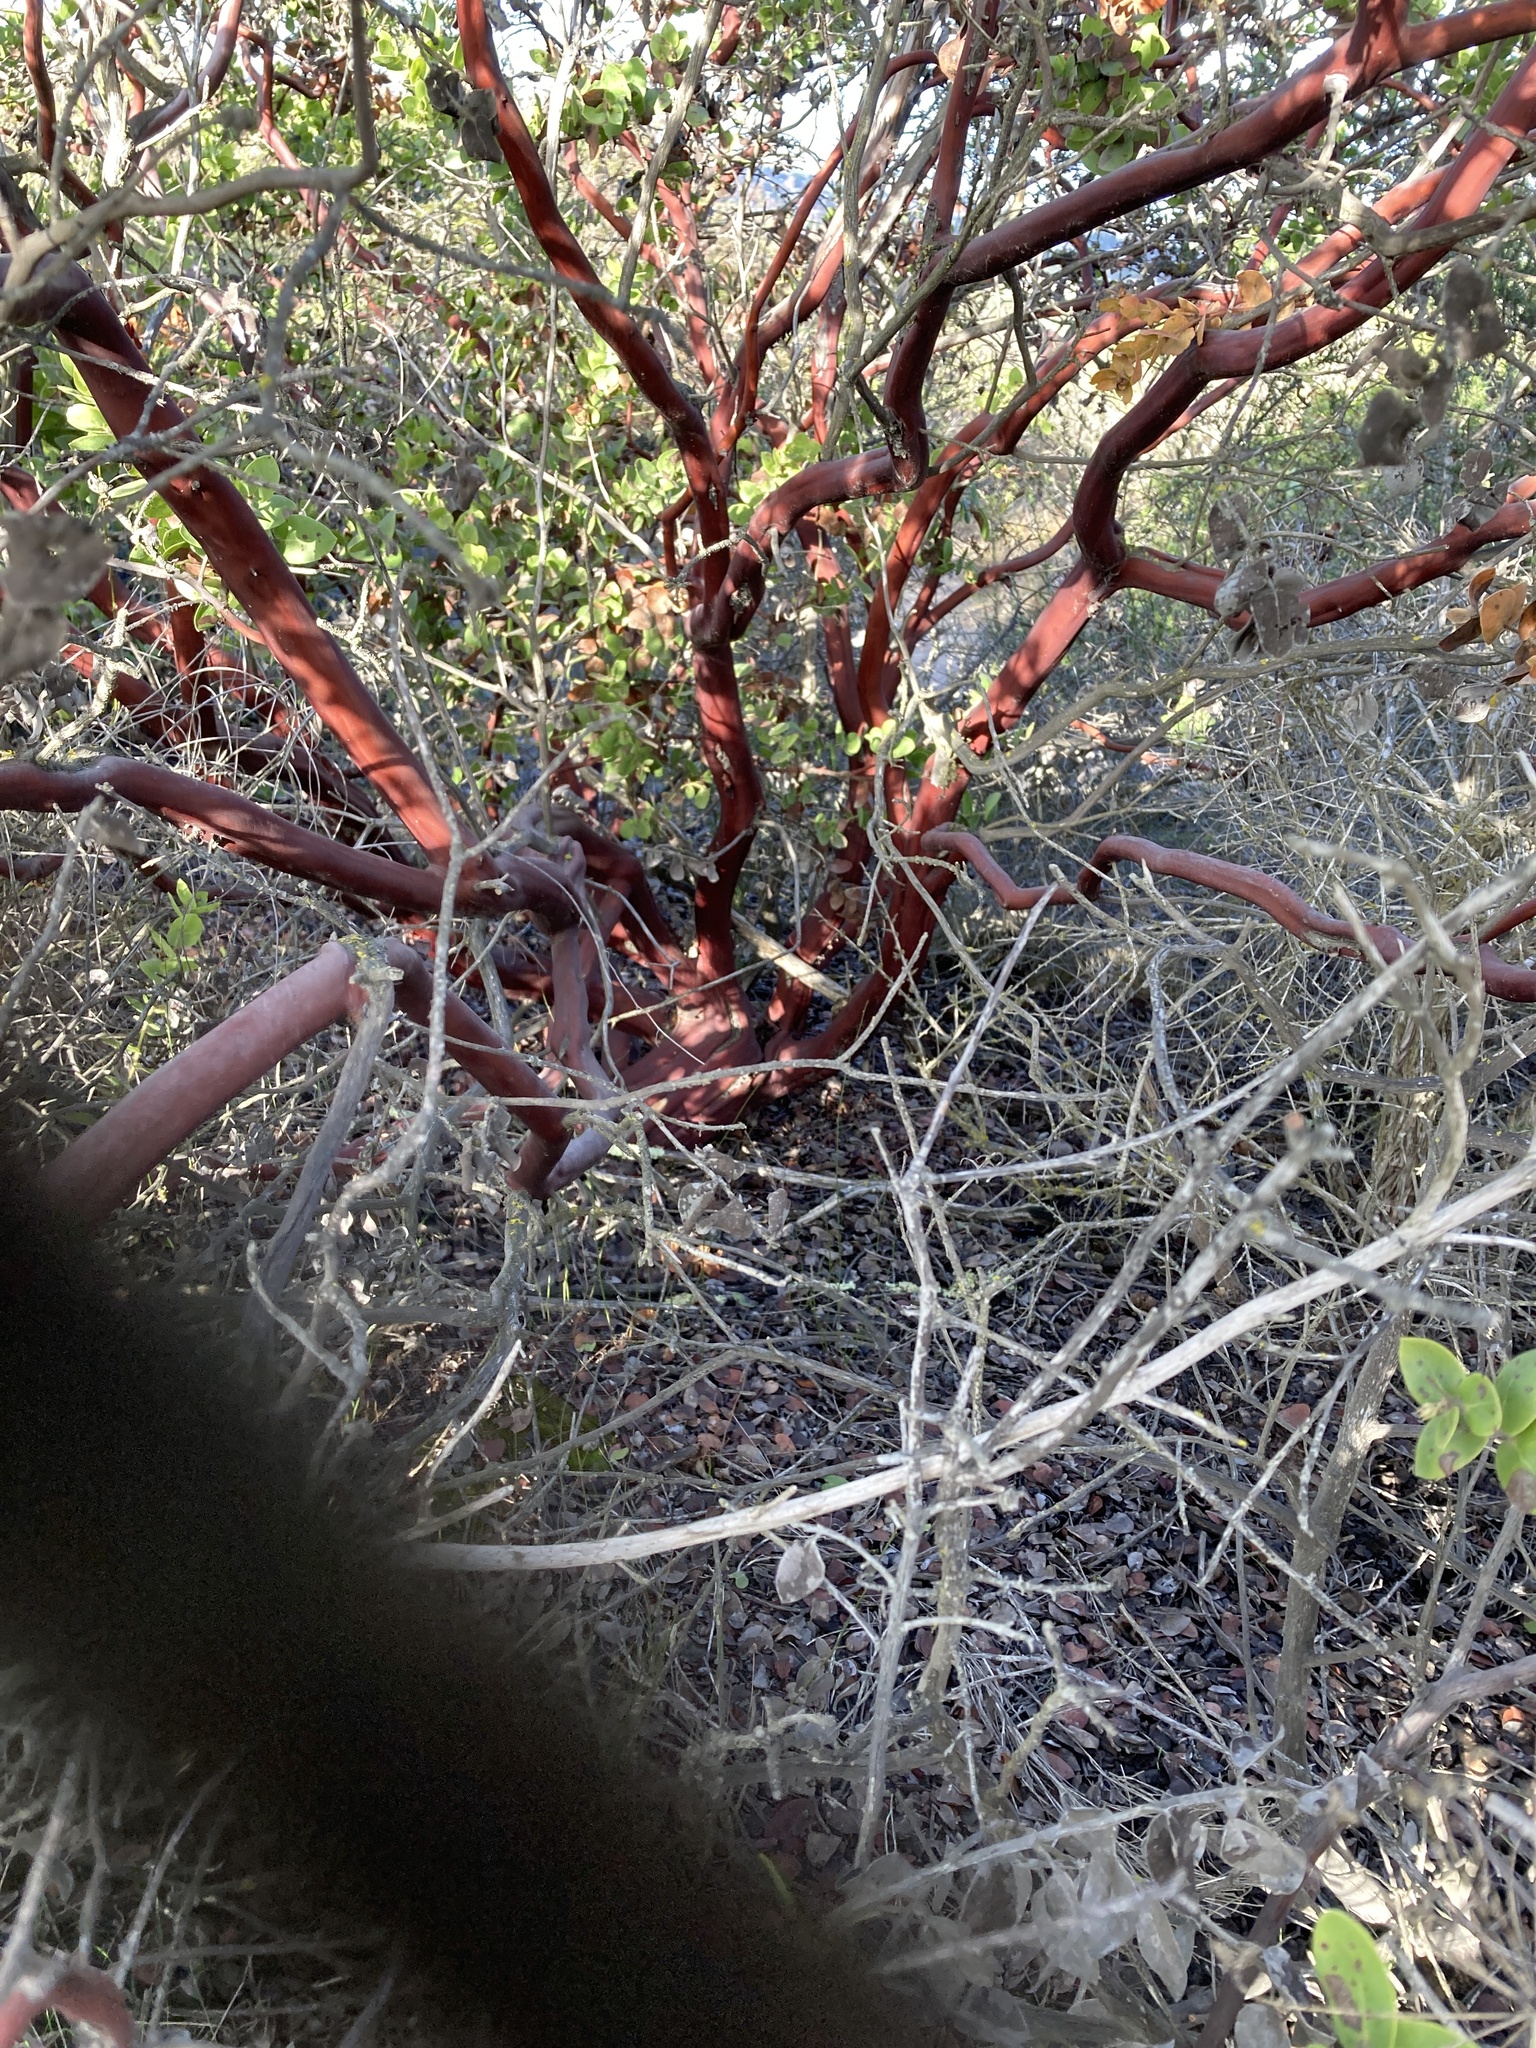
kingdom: Plantae
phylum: Tracheophyta
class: Magnoliopsida
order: Ericales
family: Ericaceae
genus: Arctostaphylos
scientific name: Arctostaphylos purissima
